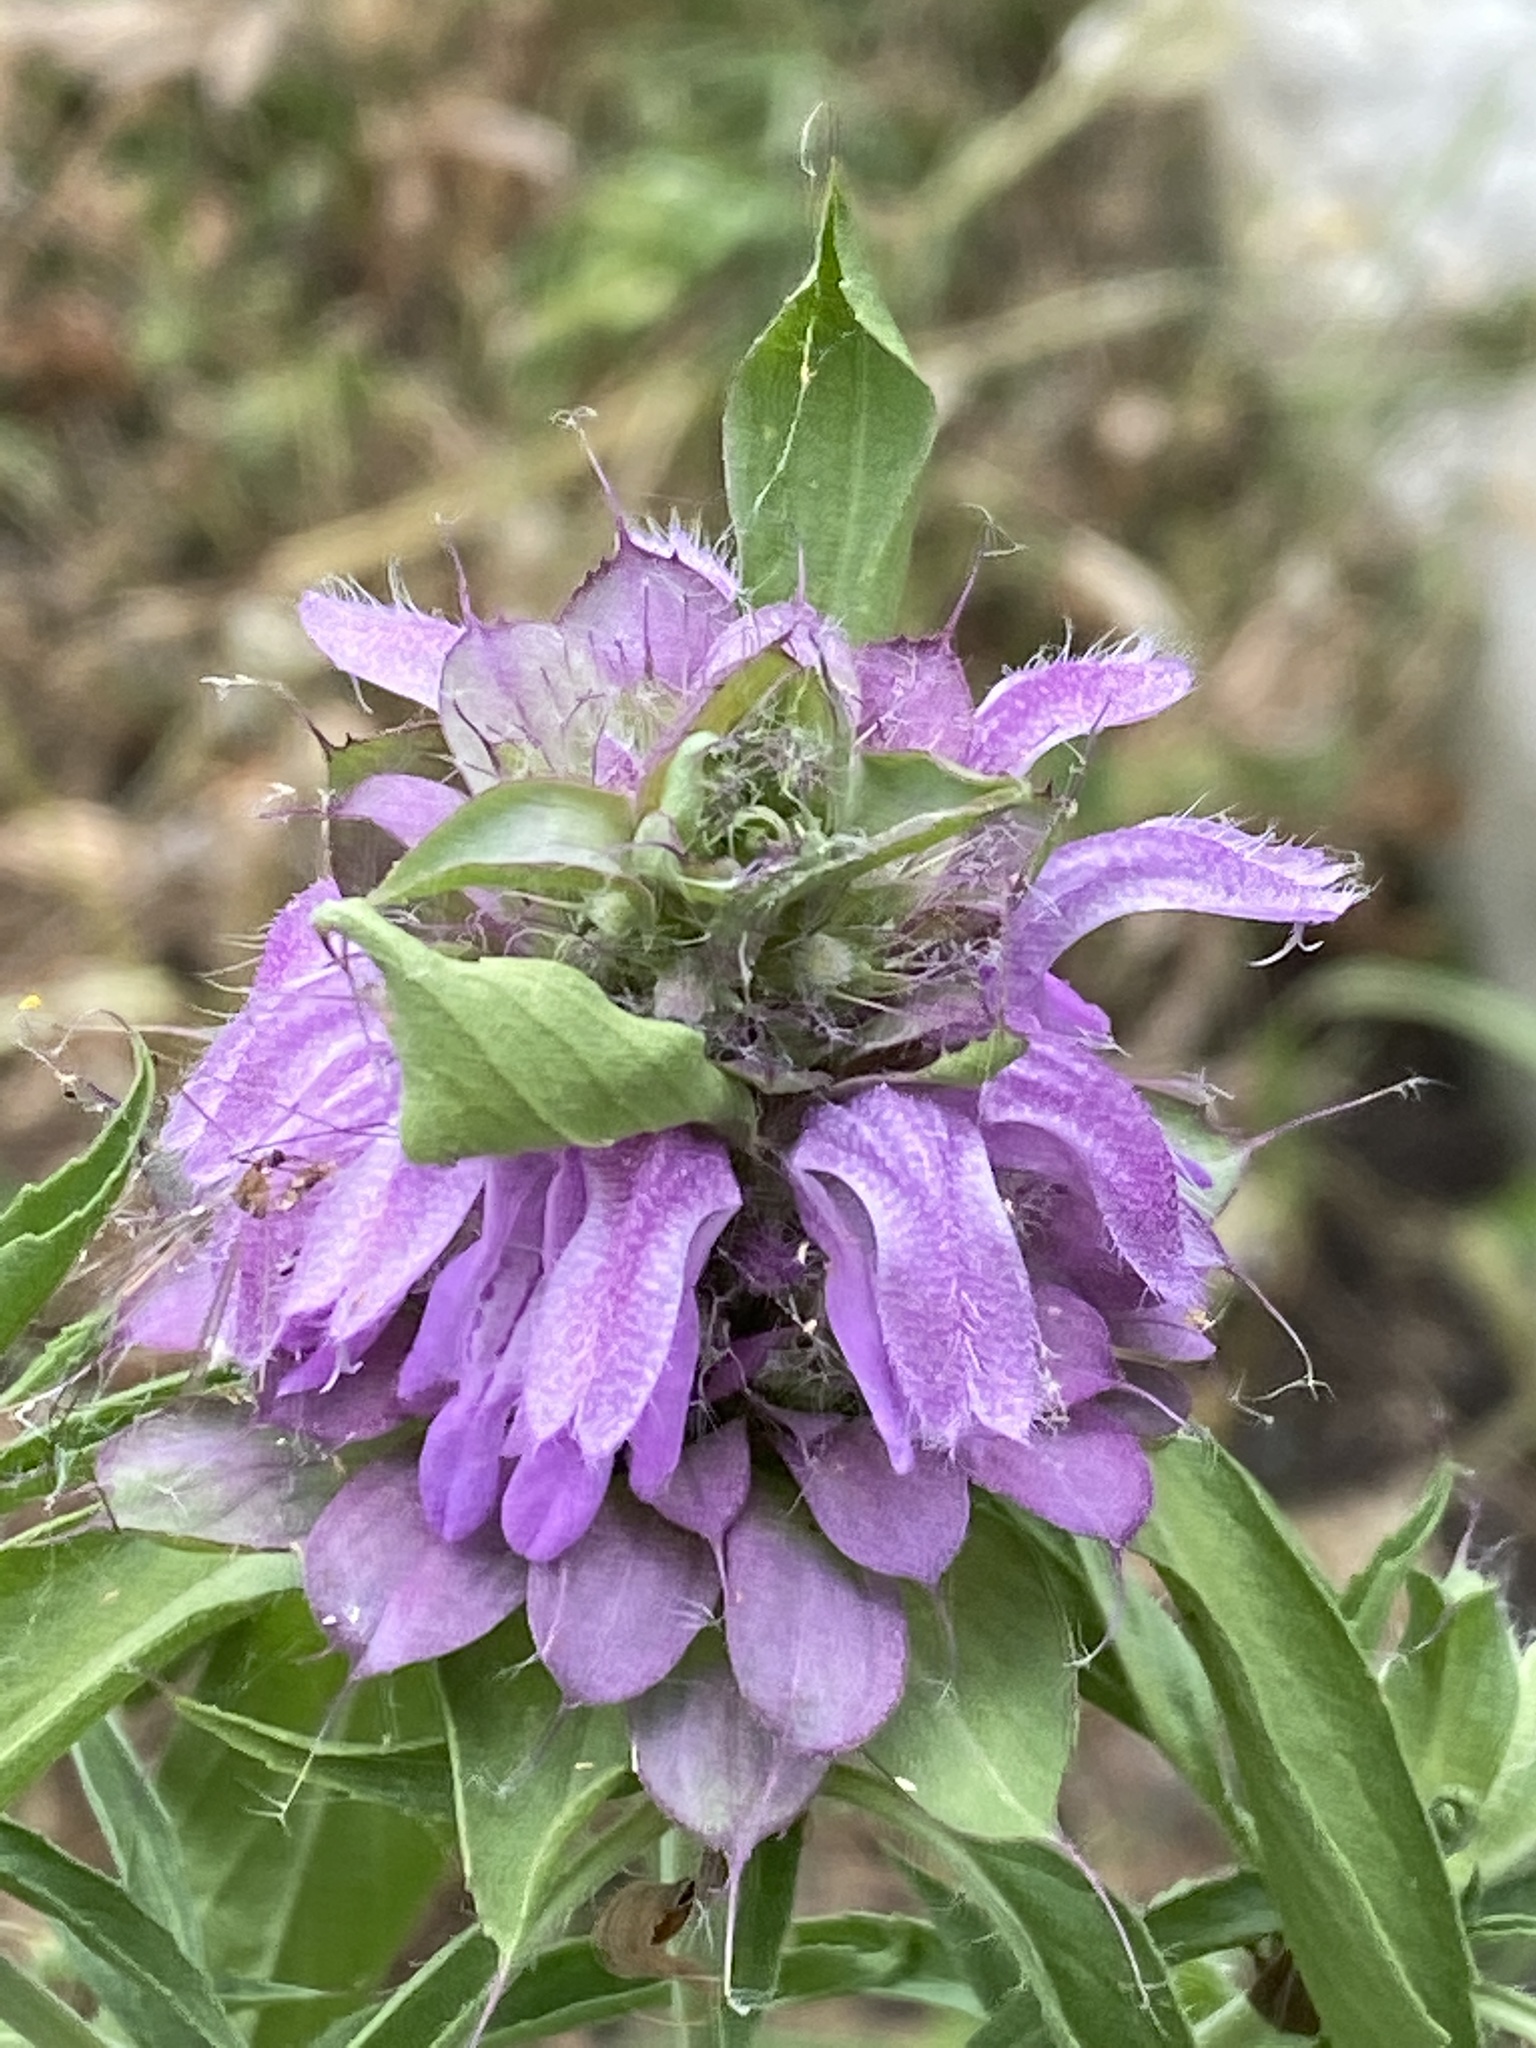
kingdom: Plantae
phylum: Tracheophyta
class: Magnoliopsida
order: Lamiales
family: Lamiaceae
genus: Monarda
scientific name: Monarda citriodora
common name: Lemon beebalm
